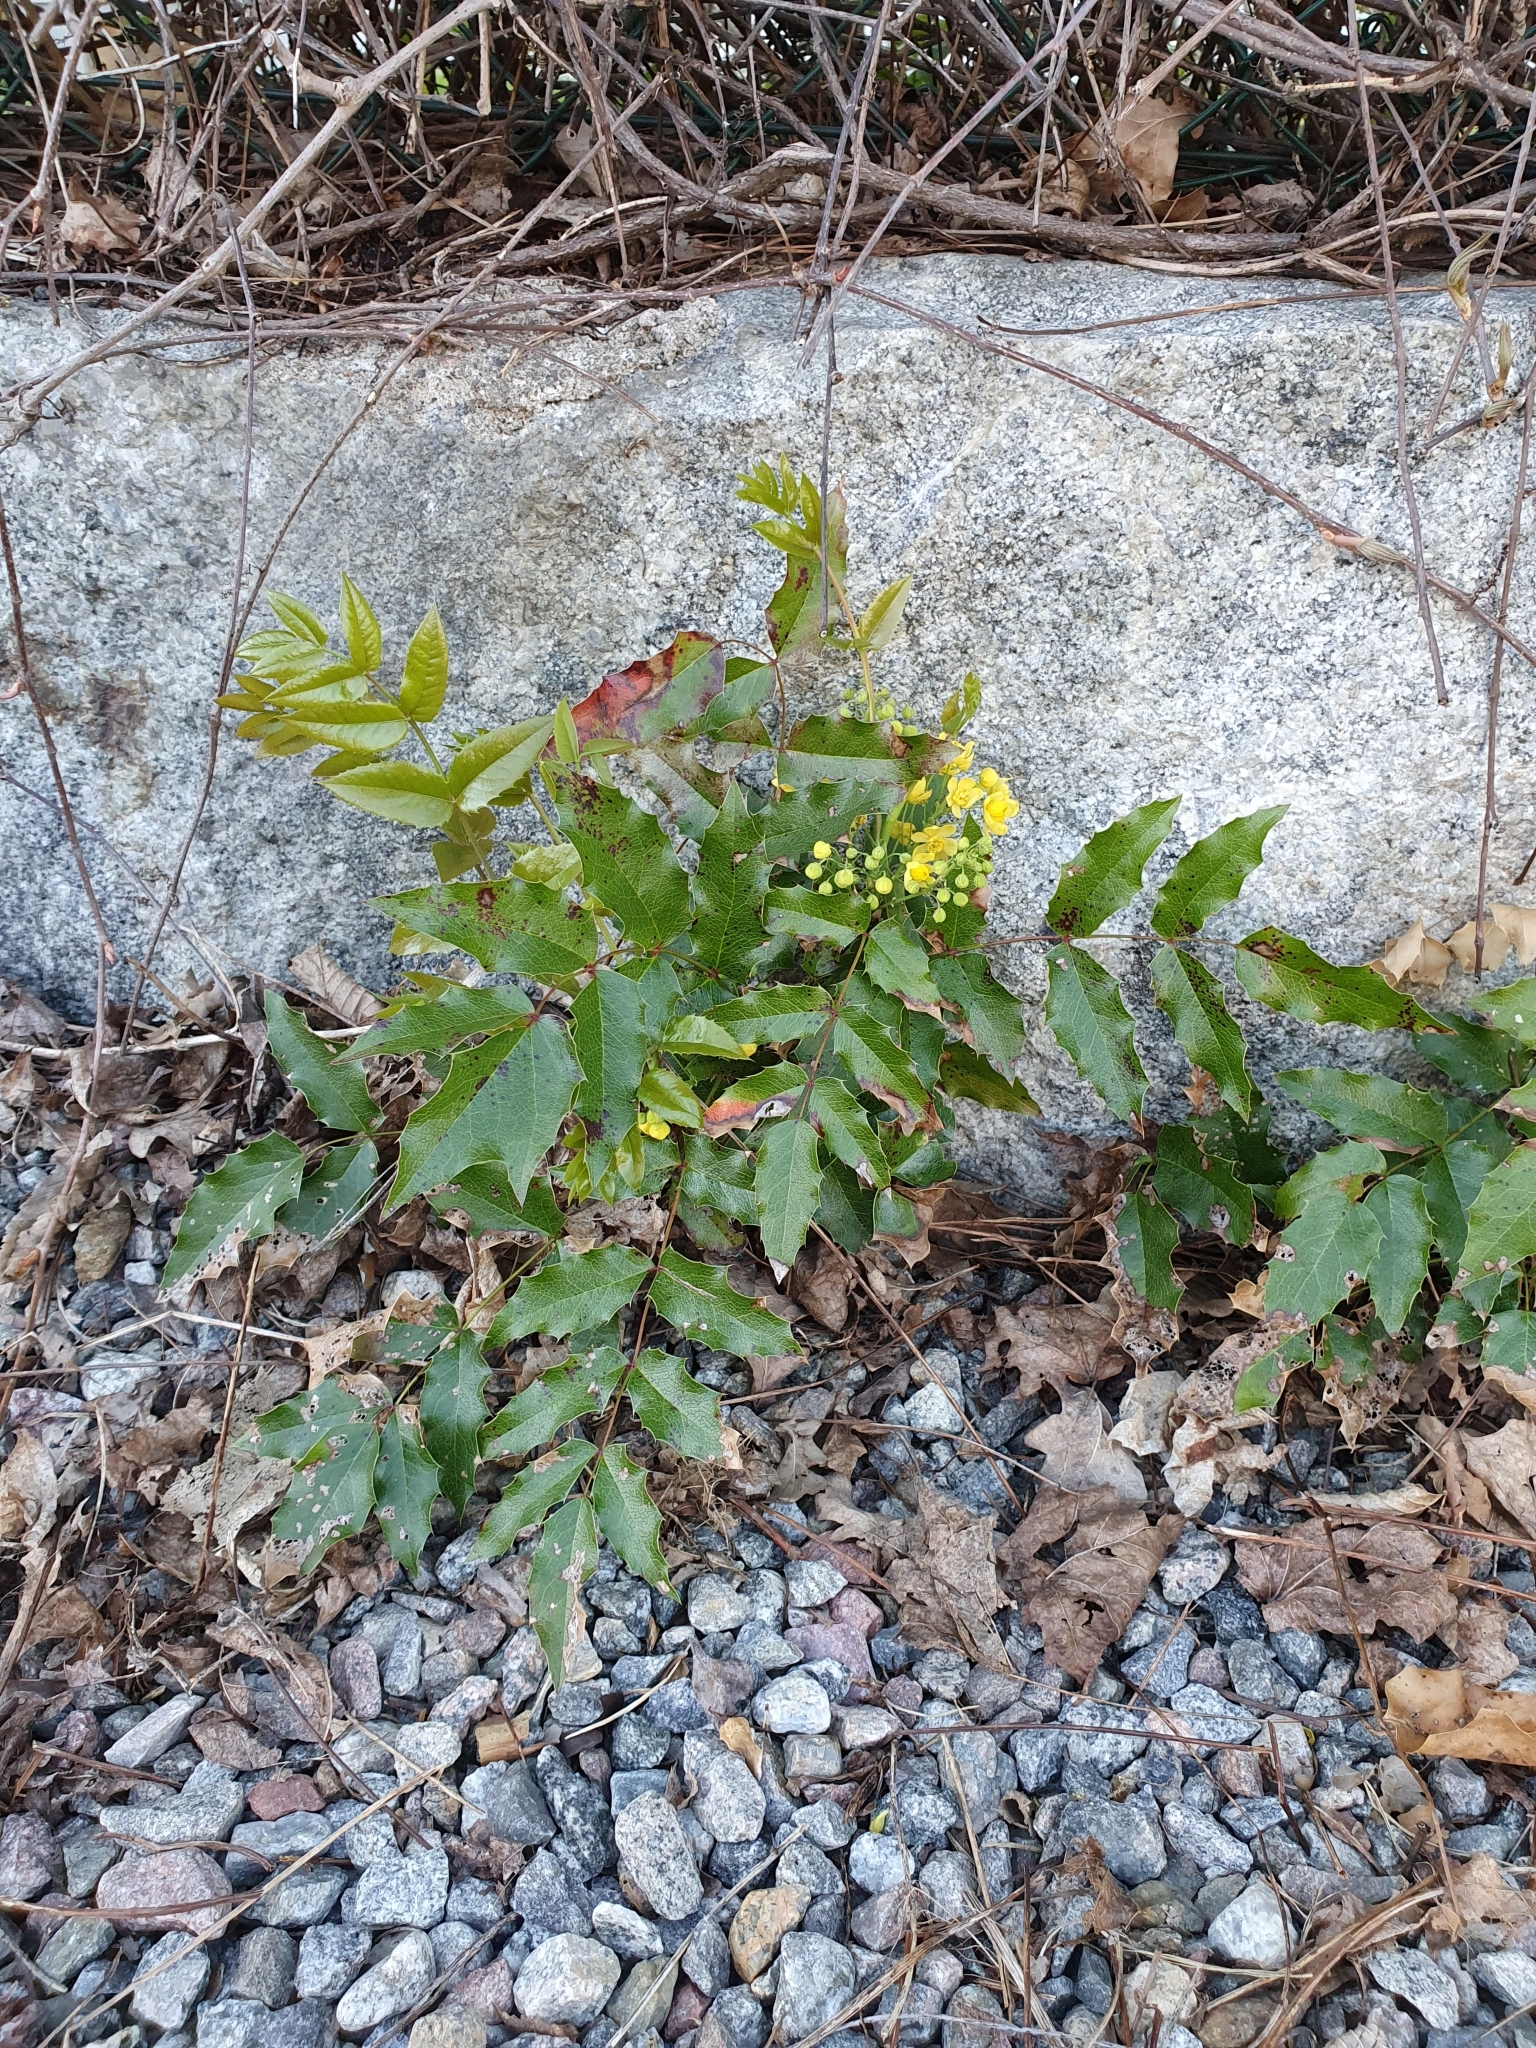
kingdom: Plantae
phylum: Tracheophyta
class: Magnoliopsida
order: Ranunculales
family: Berberidaceae
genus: Mahonia
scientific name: Mahonia aquifolium
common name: Oregon-grape
